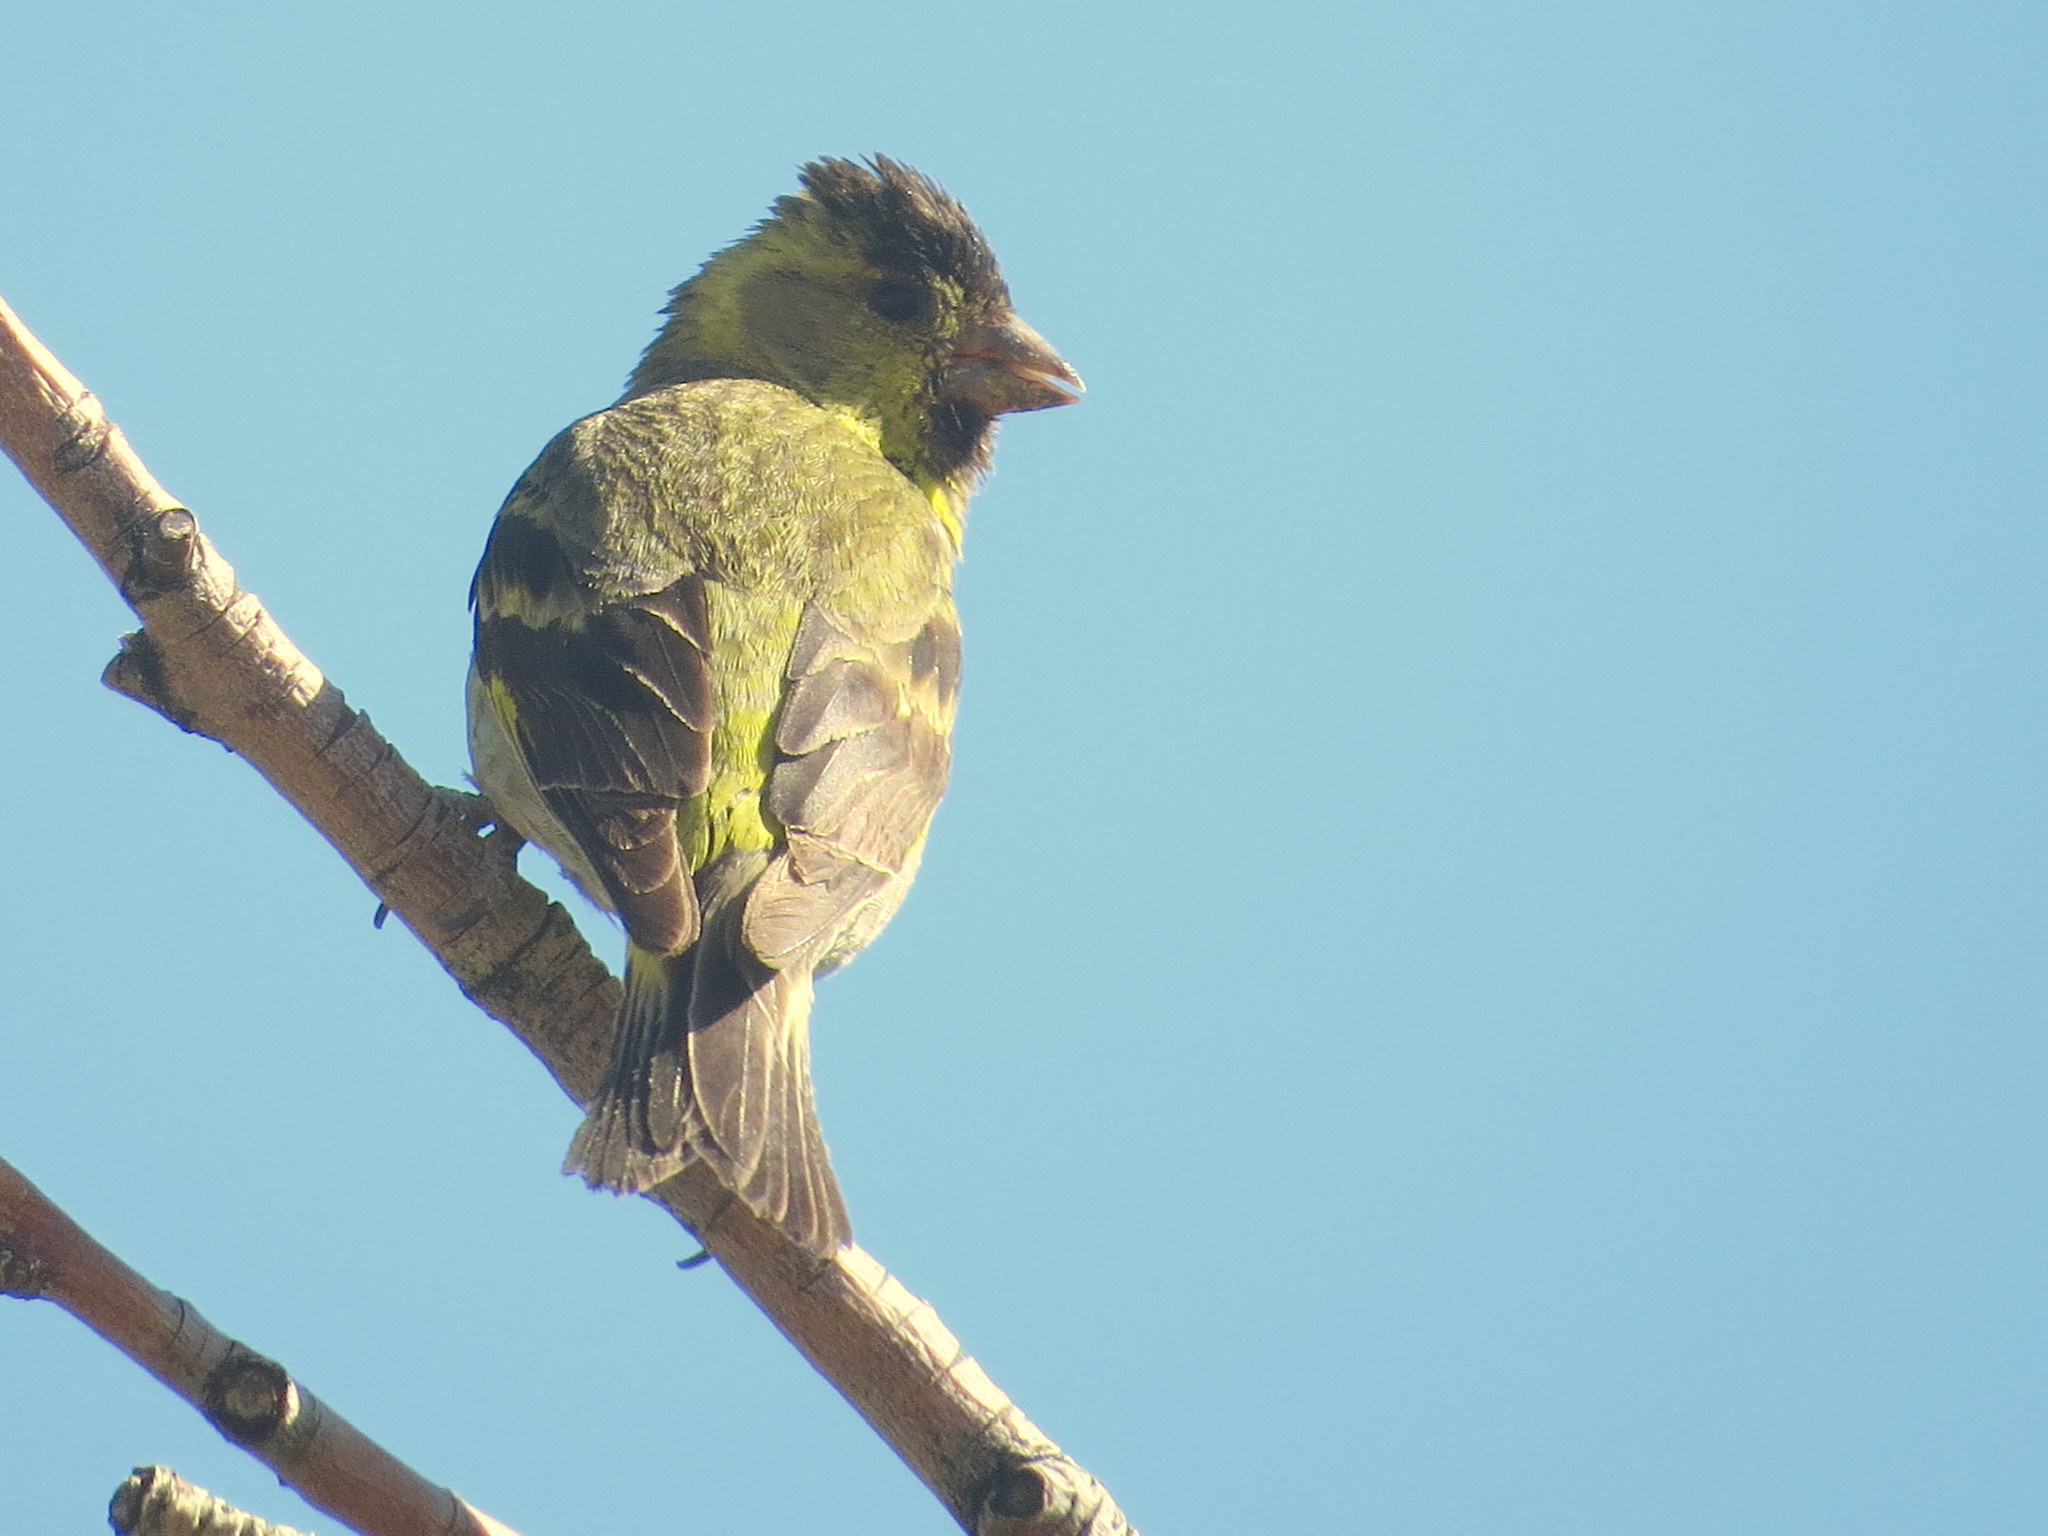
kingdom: Animalia
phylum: Chordata
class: Aves
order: Passeriformes
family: Fringillidae
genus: Spinus
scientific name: Spinus barbatus
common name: Black-chinned siskin
